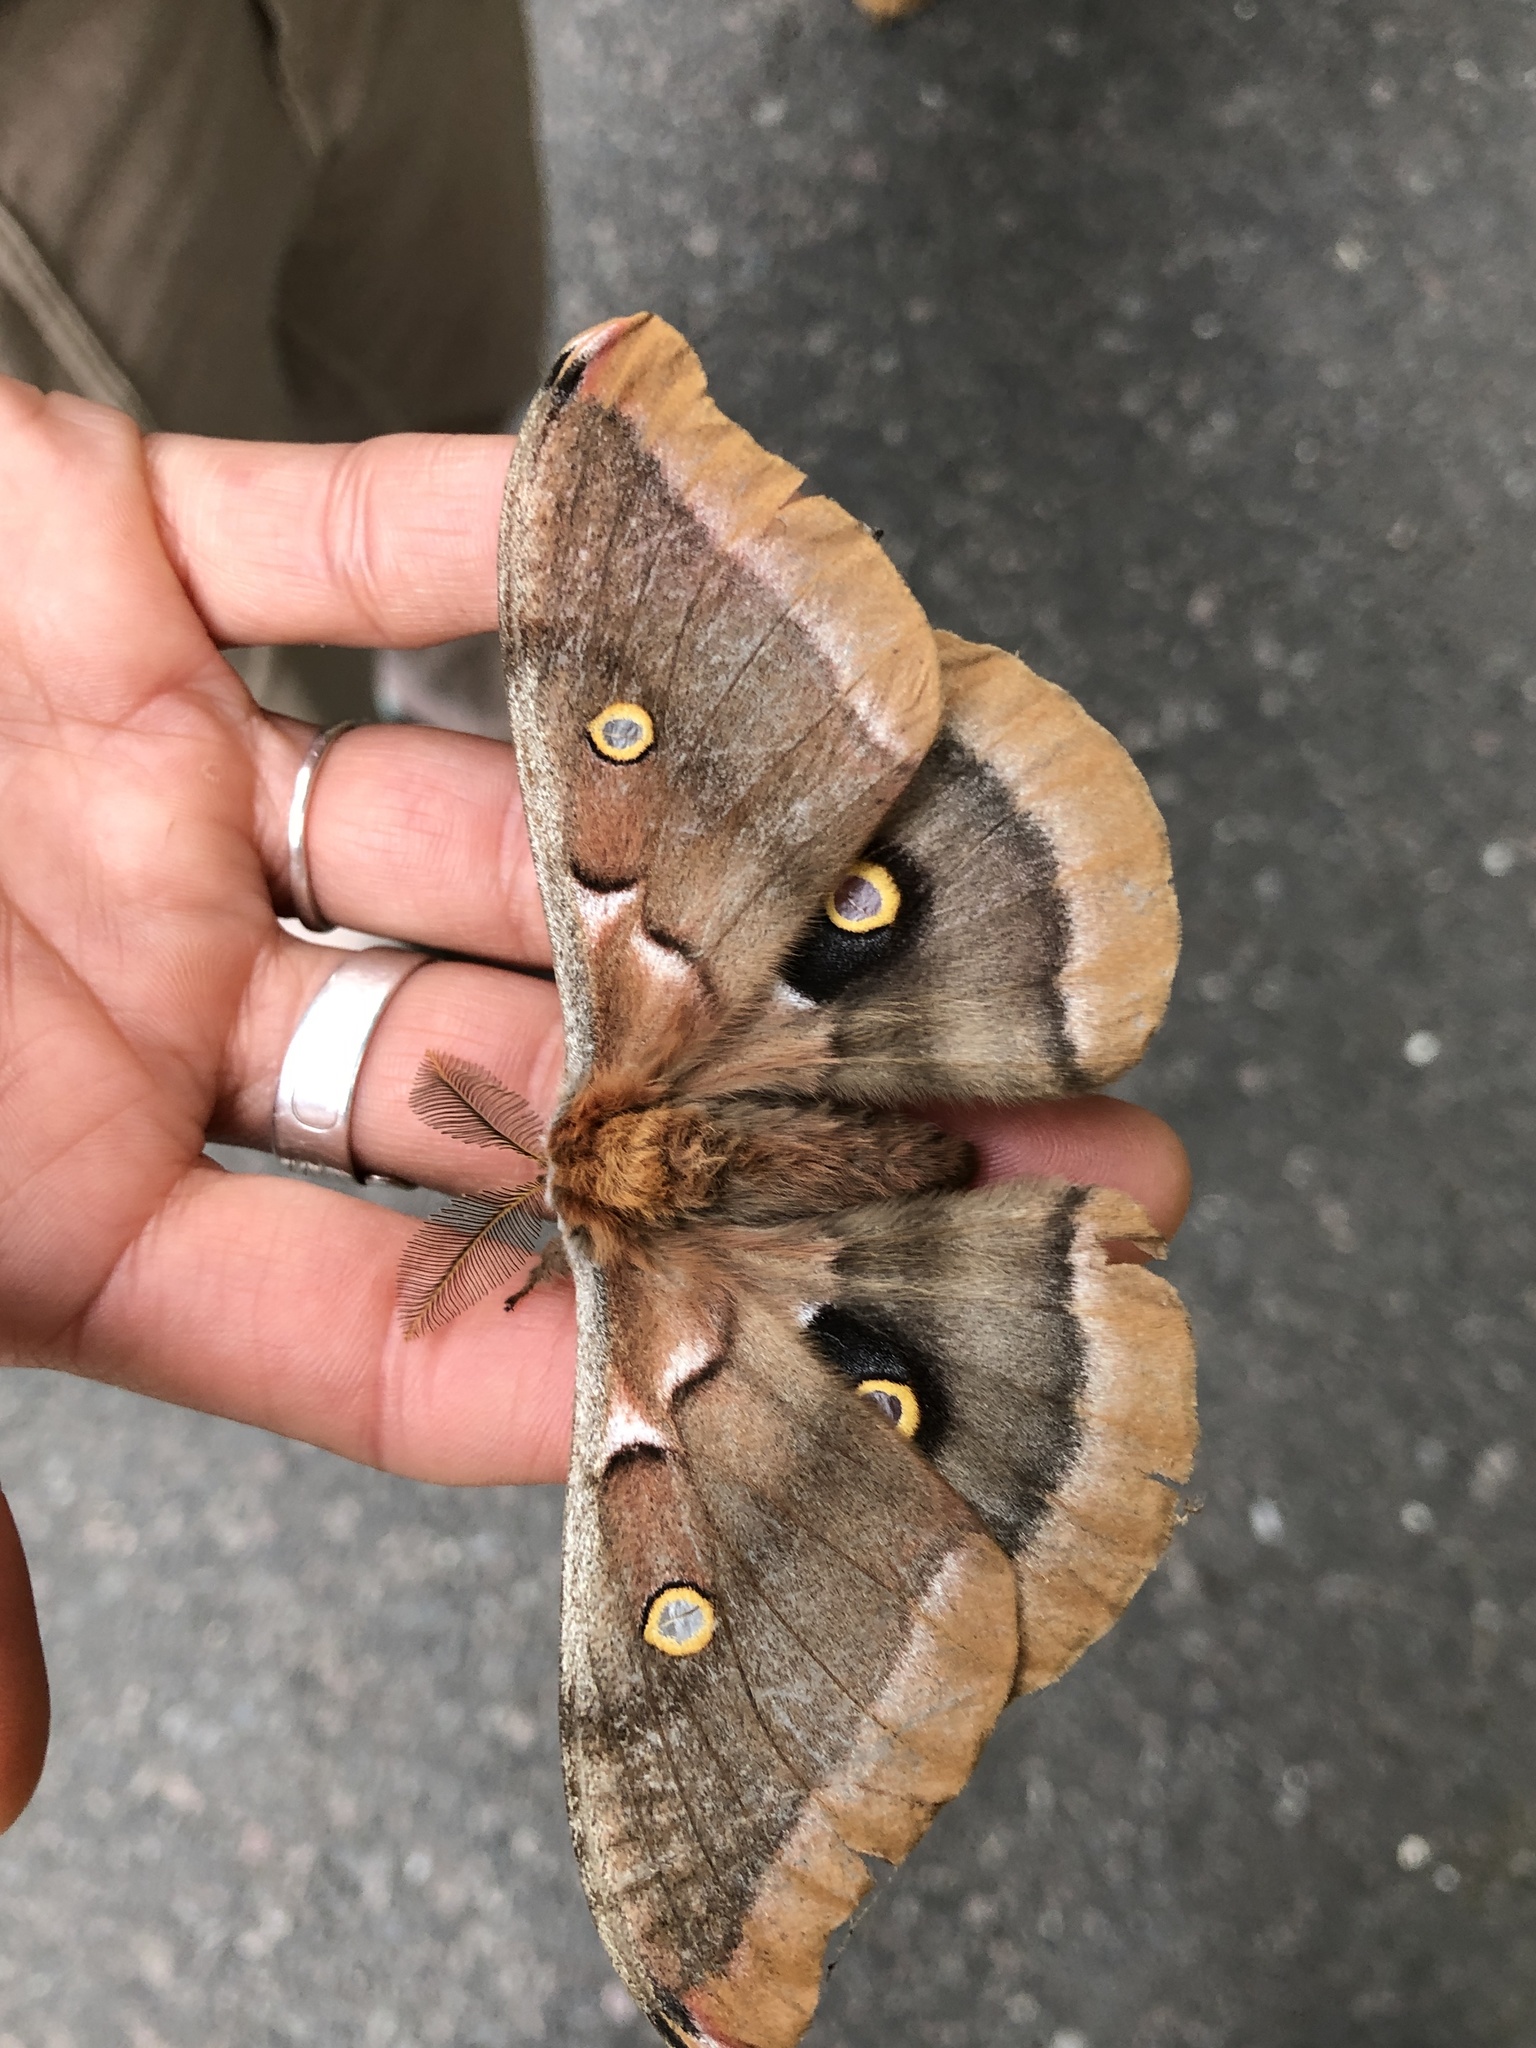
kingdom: Animalia
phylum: Arthropoda
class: Insecta
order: Lepidoptera
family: Saturniidae
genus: Antheraea
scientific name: Antheraea polyphemus
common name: Polyphemus moth
